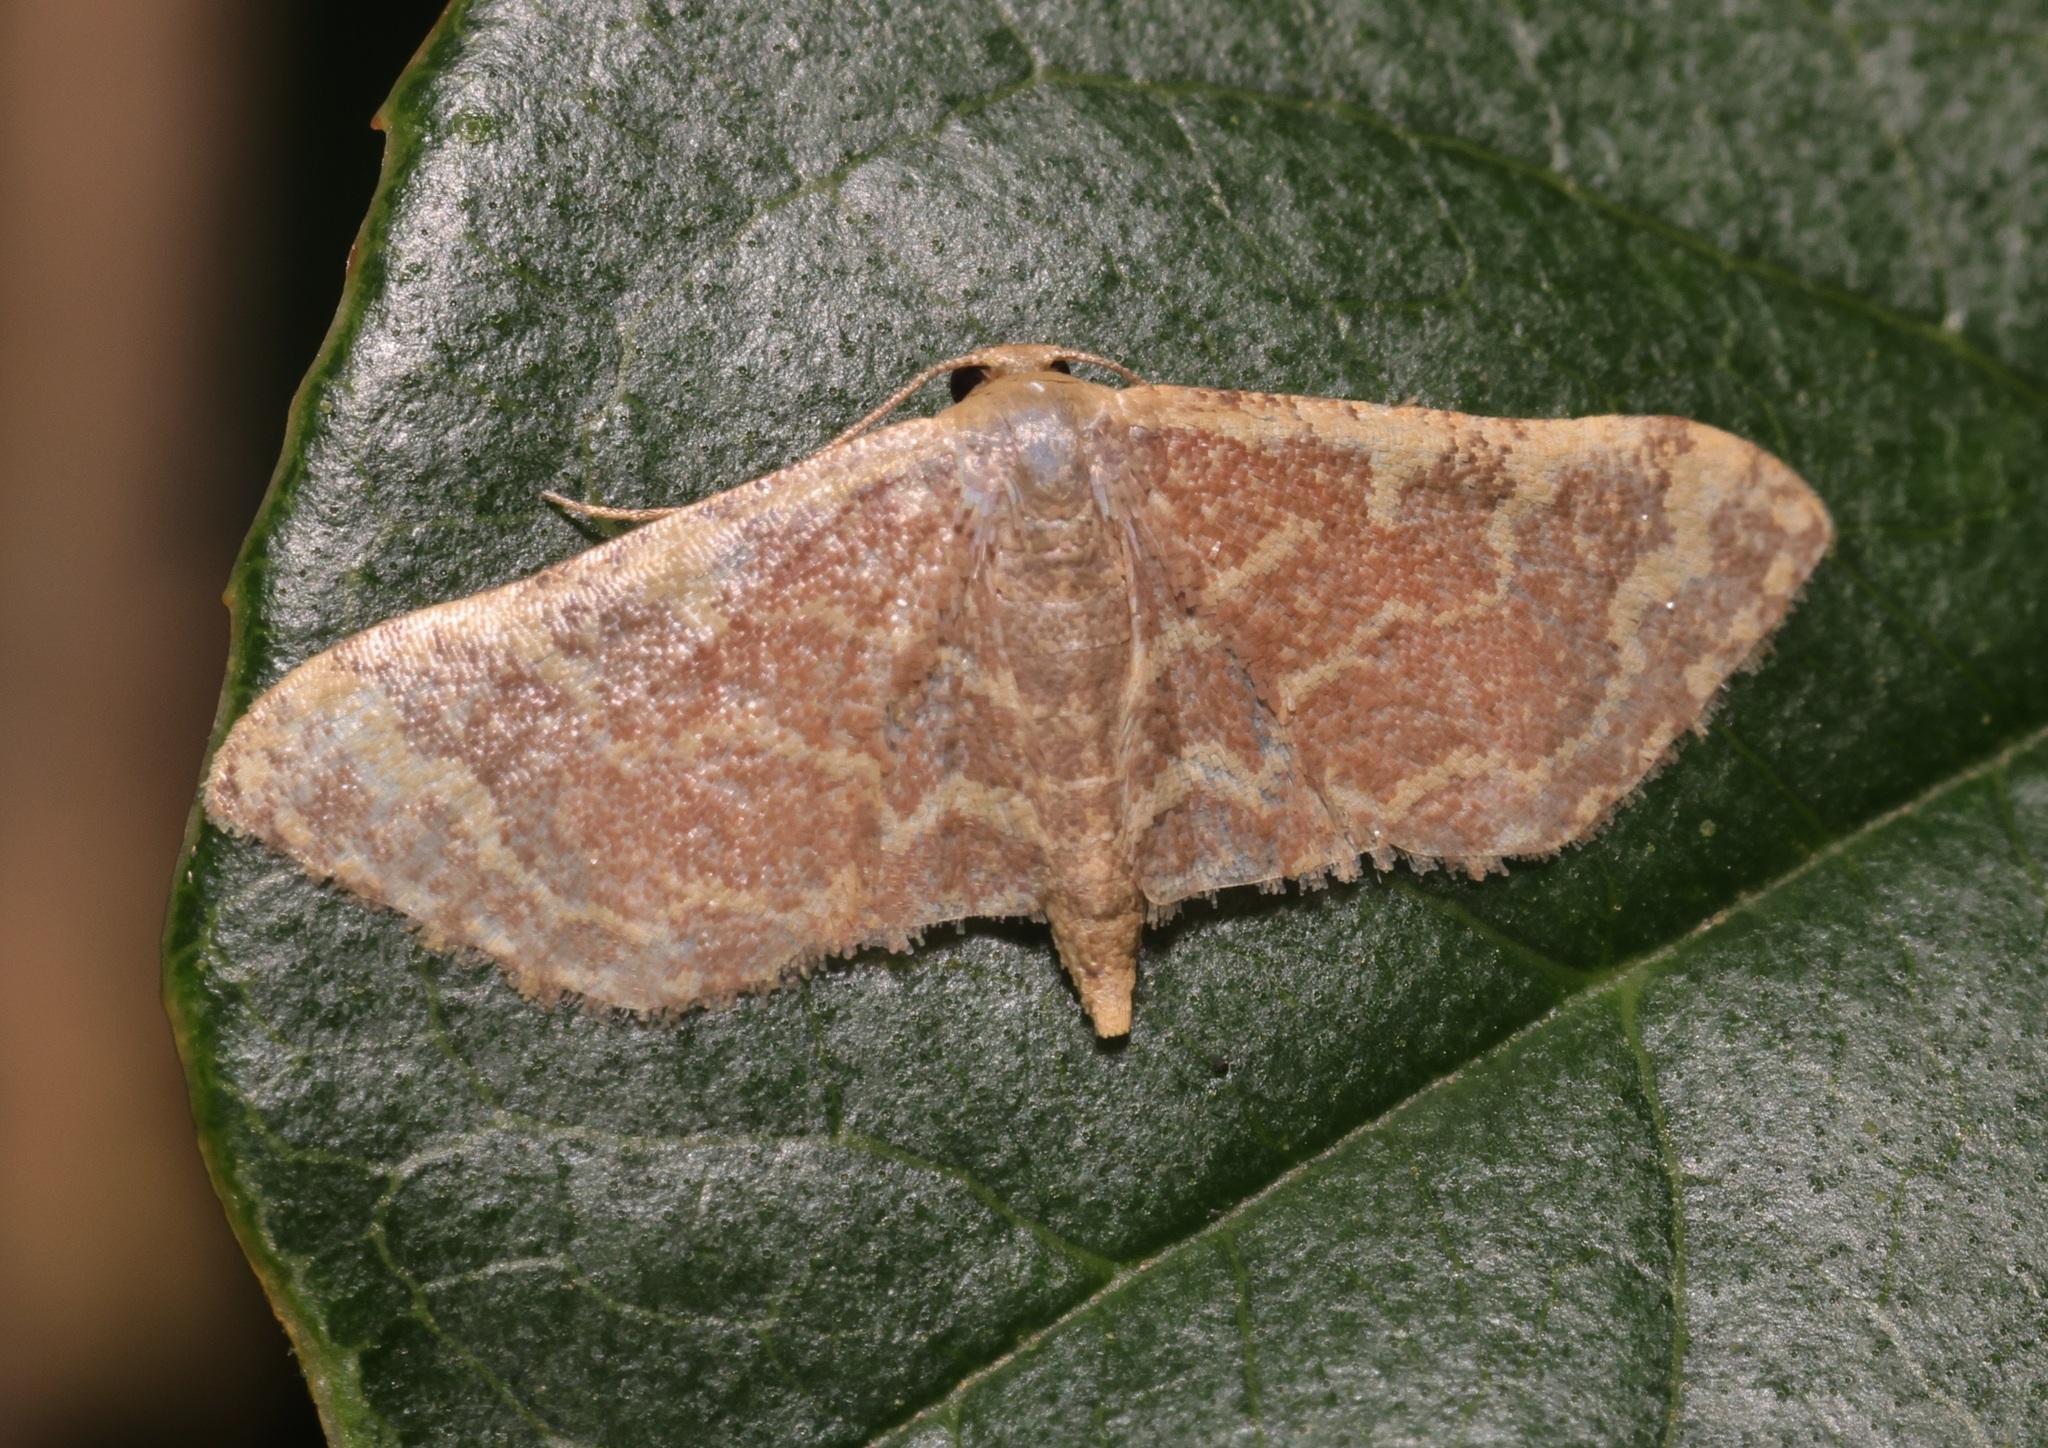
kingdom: Animalia
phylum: Arthropoda
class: Insecta
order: Lepidoptera
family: Geometridae
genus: Lophophleps
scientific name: Lophophleps purpurea
